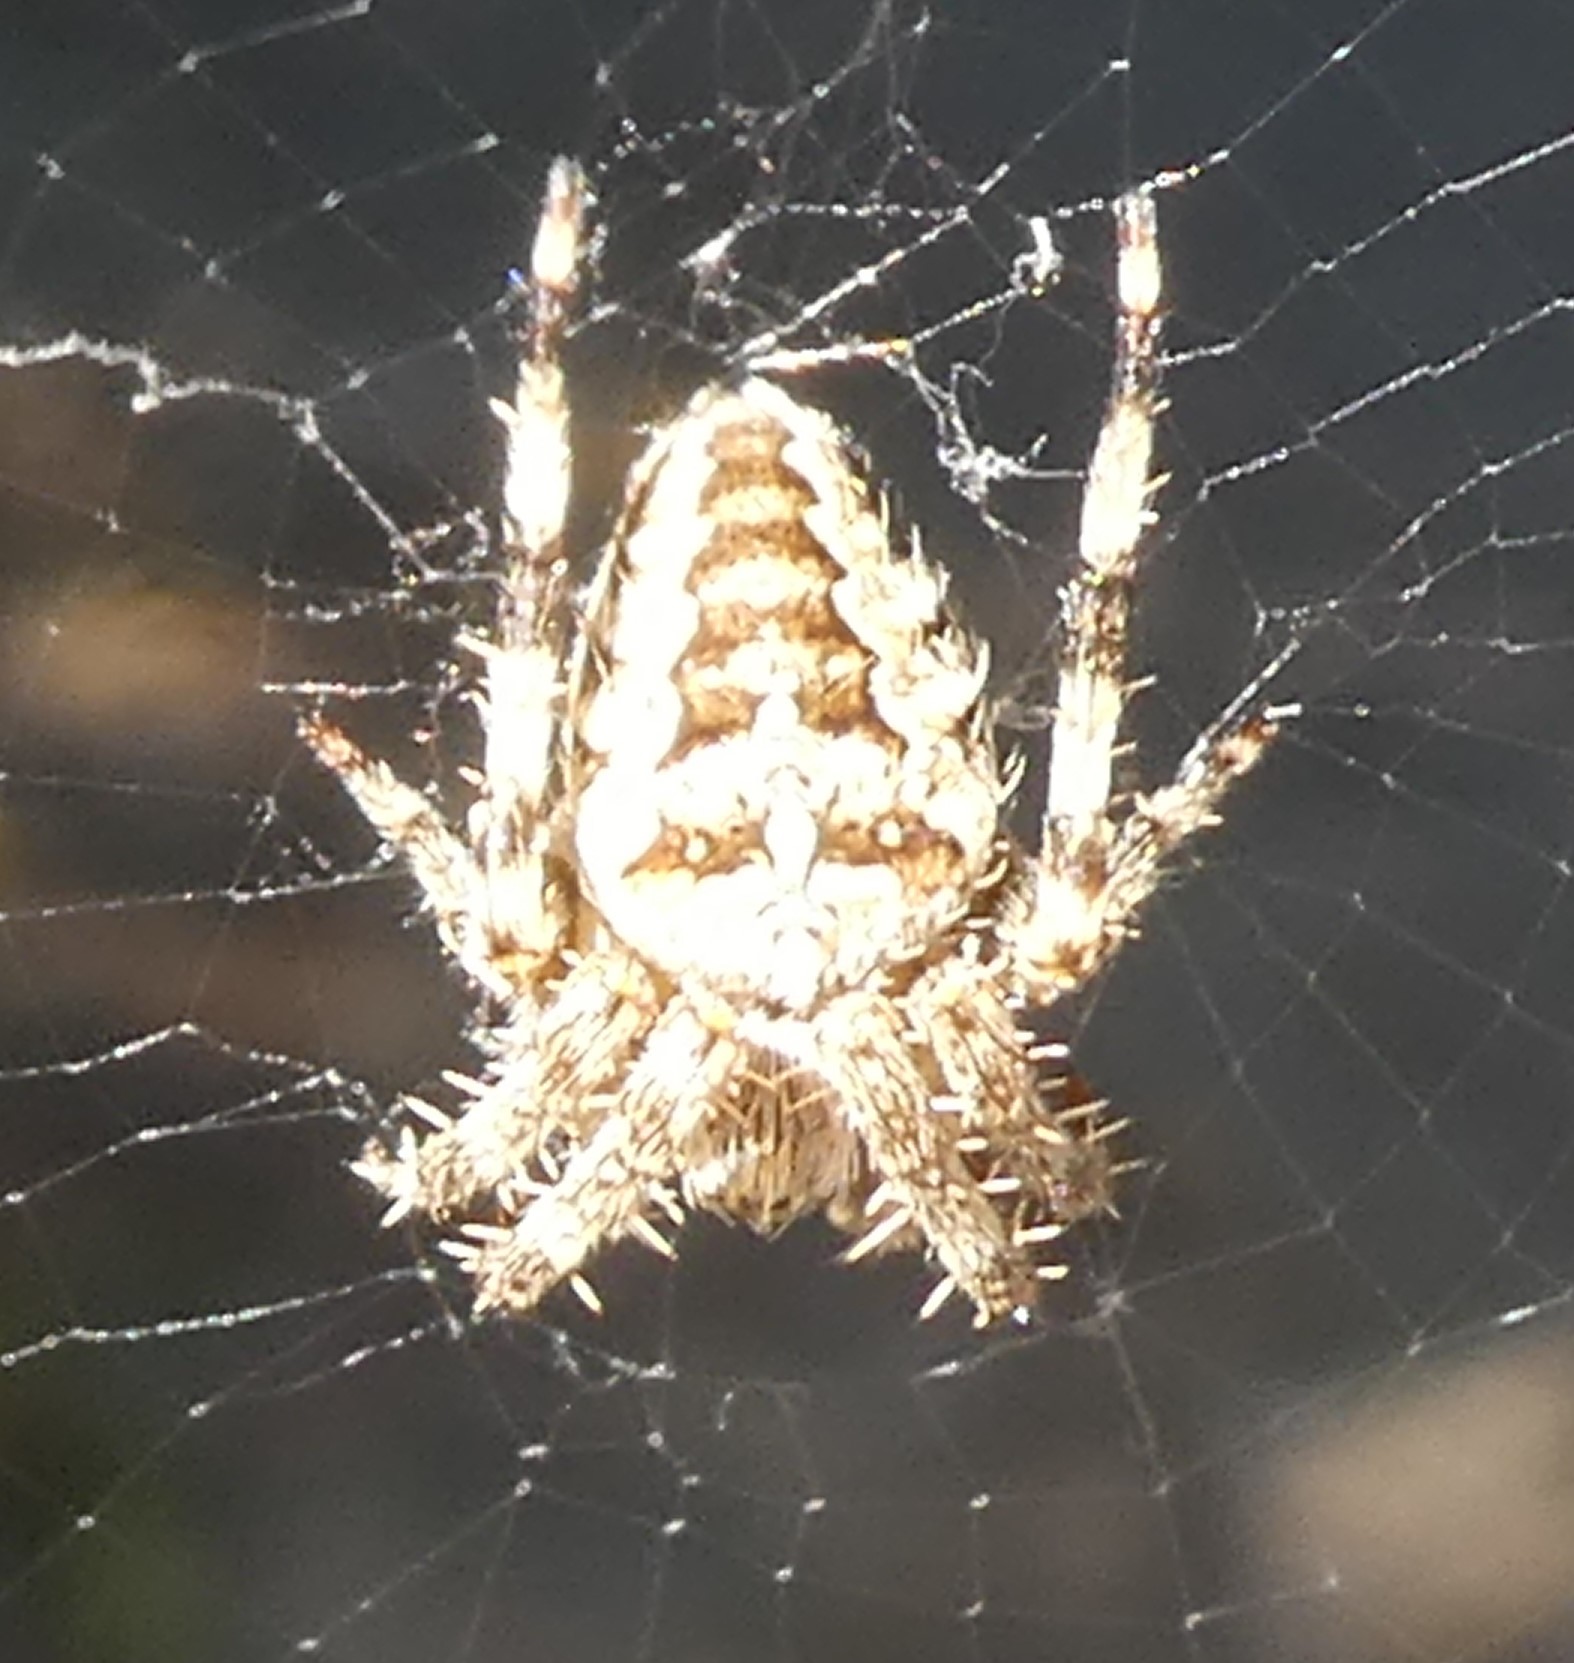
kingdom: Animalia
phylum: Arthropoda
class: Arachnida
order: Araneae
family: Araneidae
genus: Araneus
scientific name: Araneus diadematus
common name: Cross orbweaver
